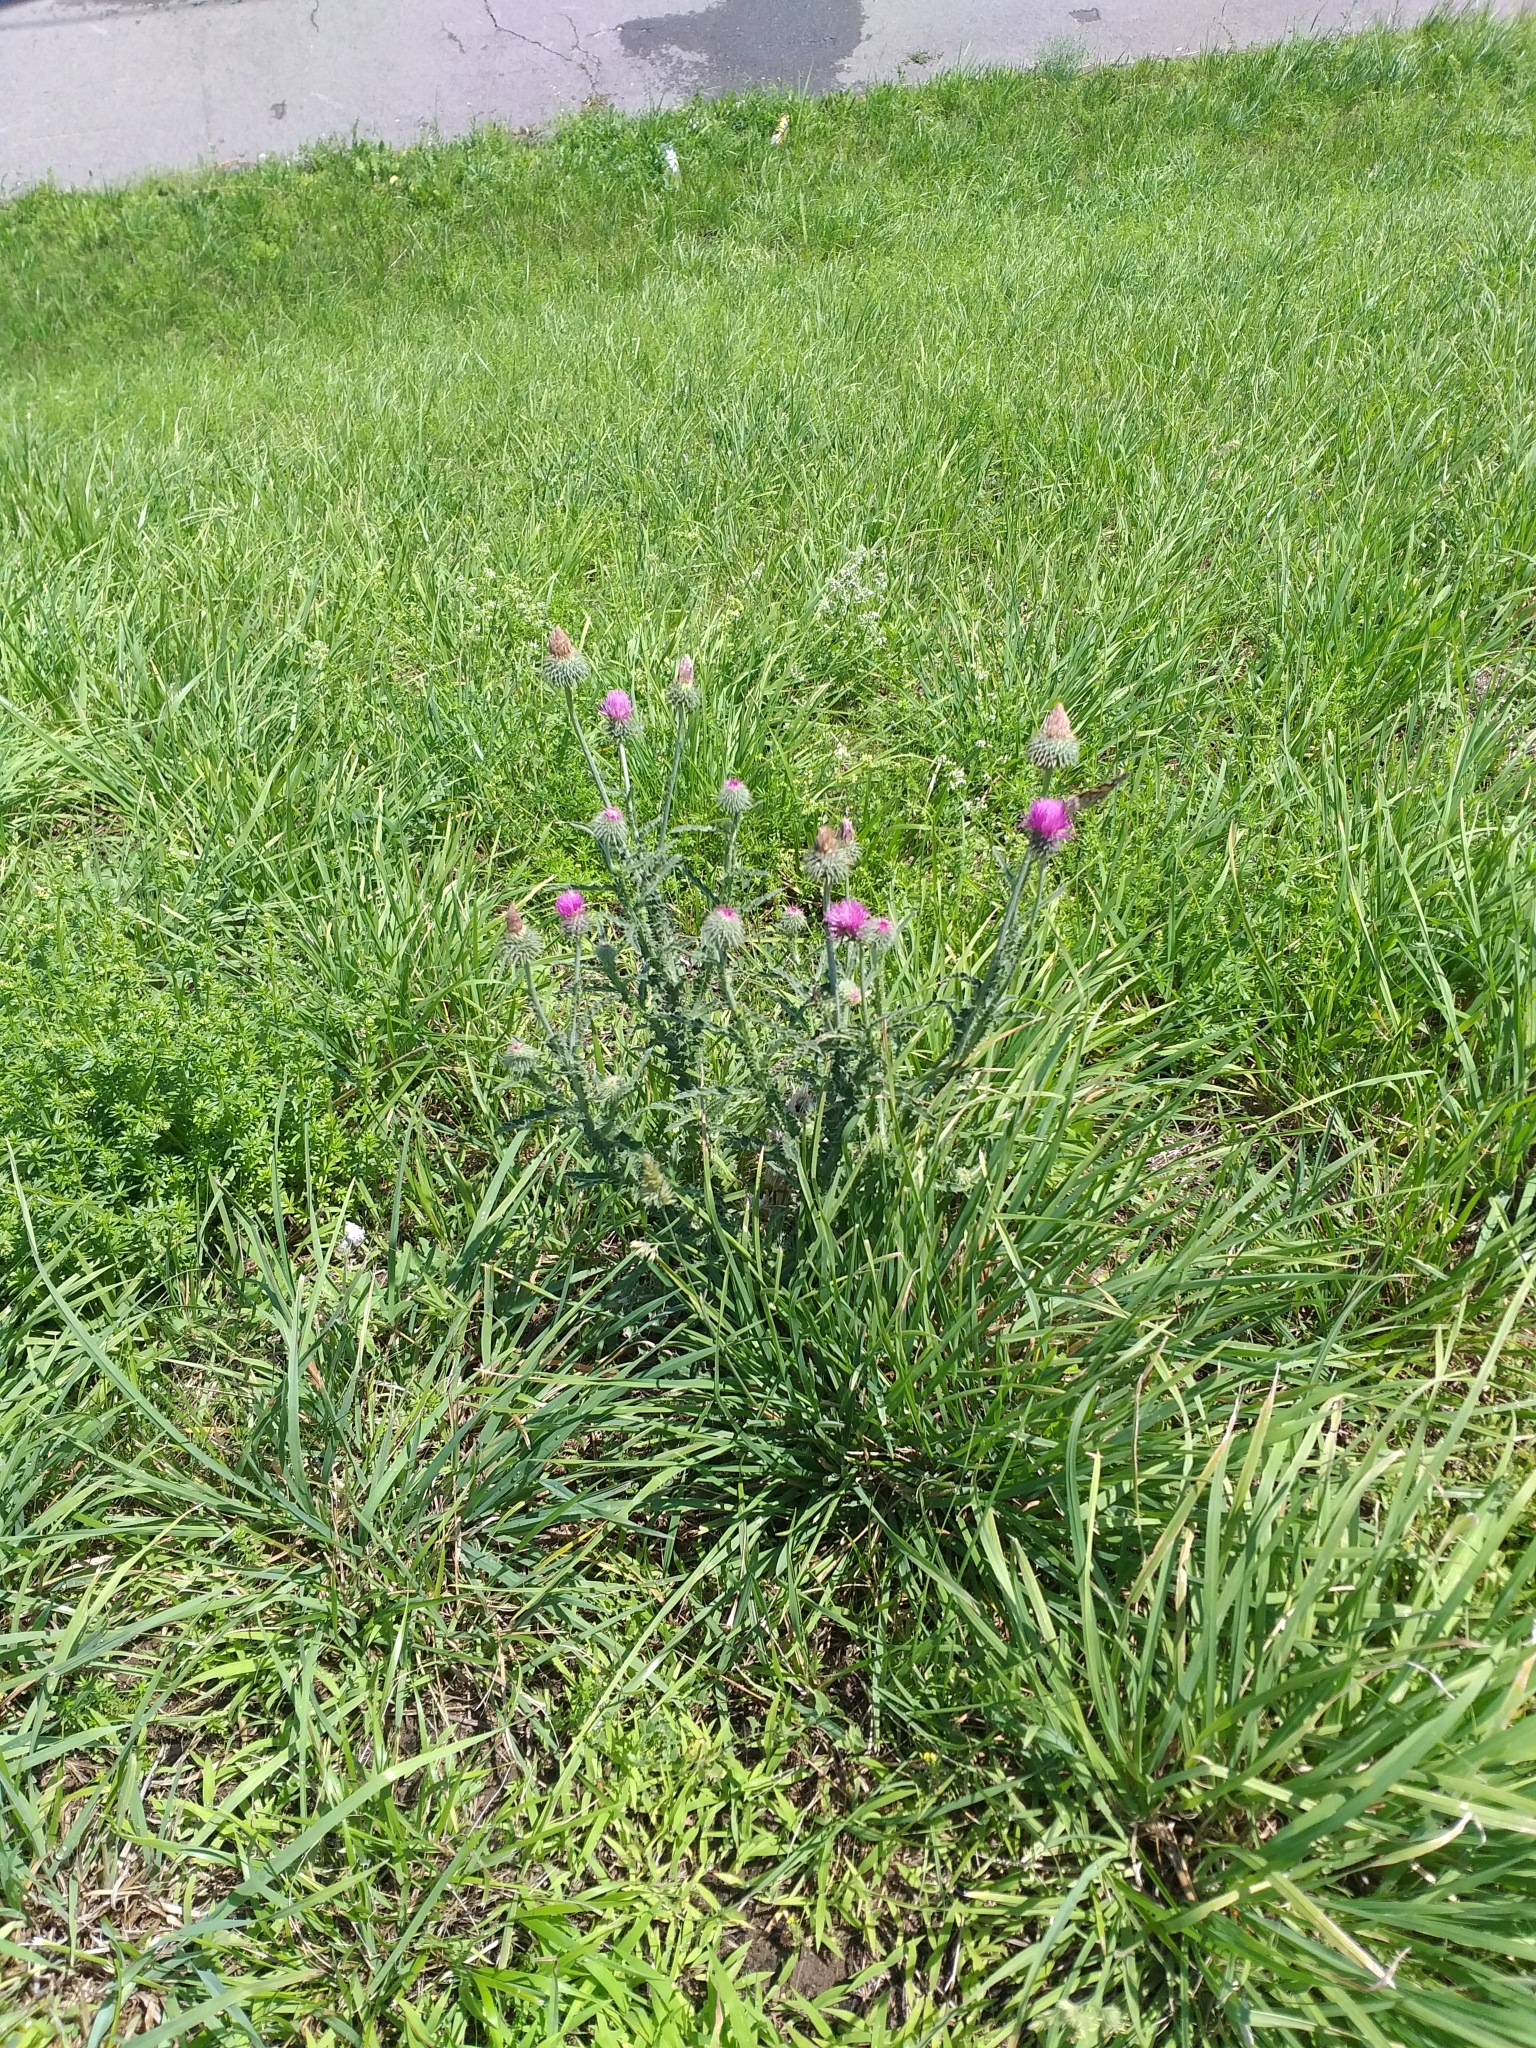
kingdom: Plantae
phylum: Tracheophyta
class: Magnoliopsida
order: Asterales
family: Asteraceae
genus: Carduus
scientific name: Carduus uncinatus
